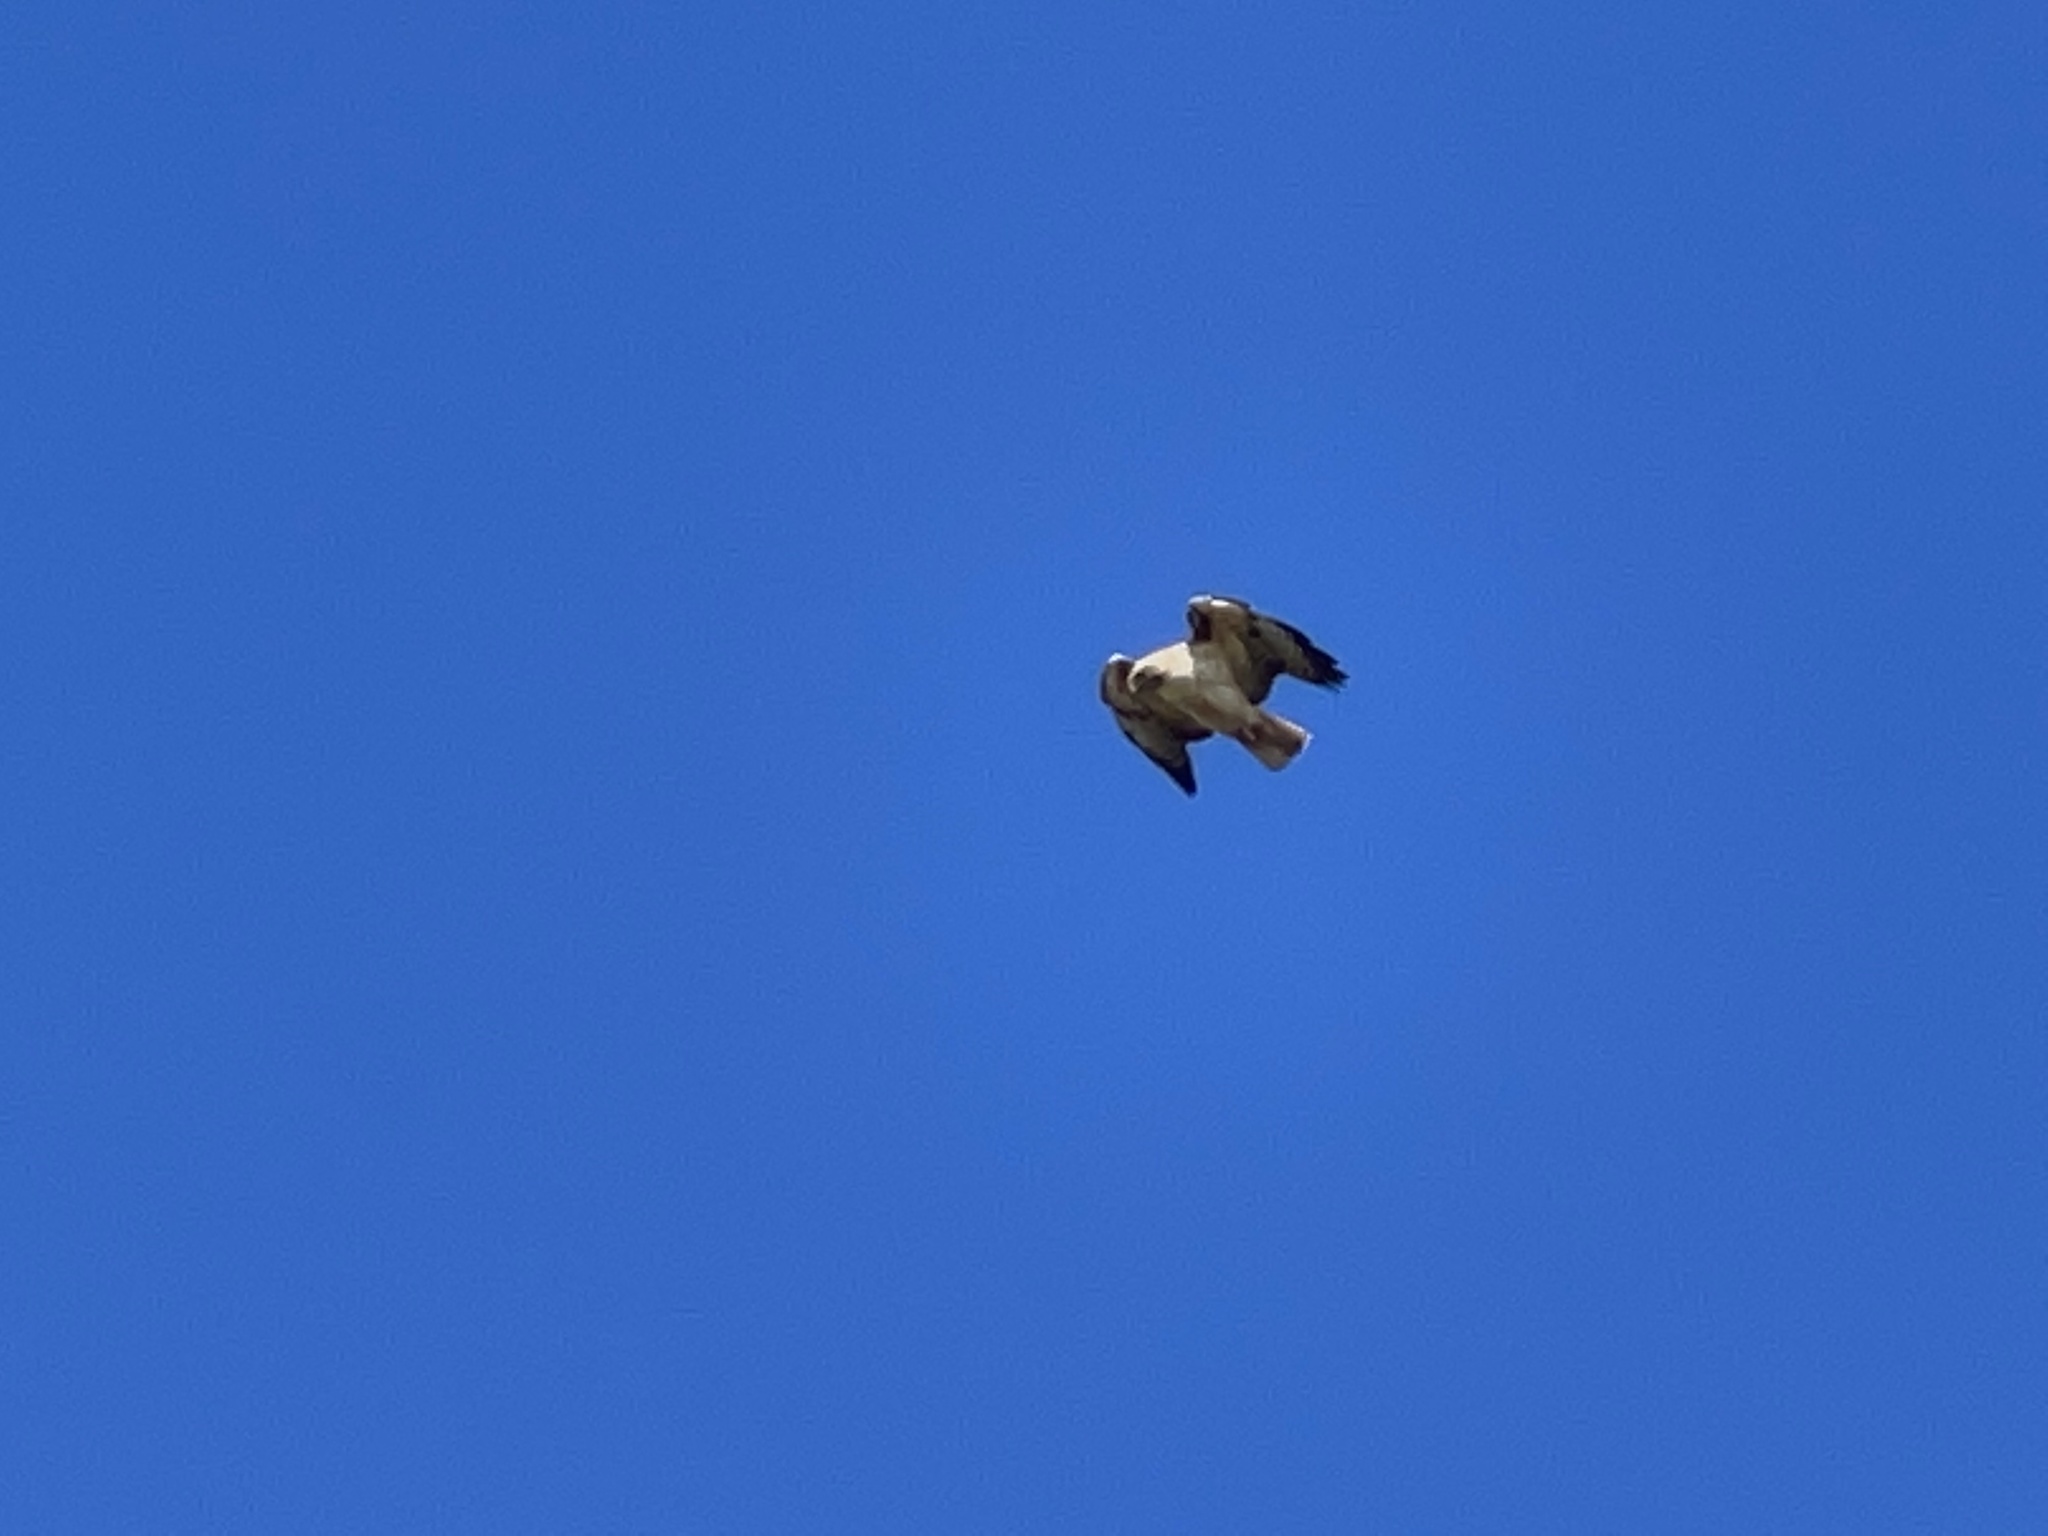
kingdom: Animalia
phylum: Chordata
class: Aves
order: Accipitriformes
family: Accipitridae
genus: Buteo
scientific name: Buteo jamaicensis
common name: Red-tailed hawk
